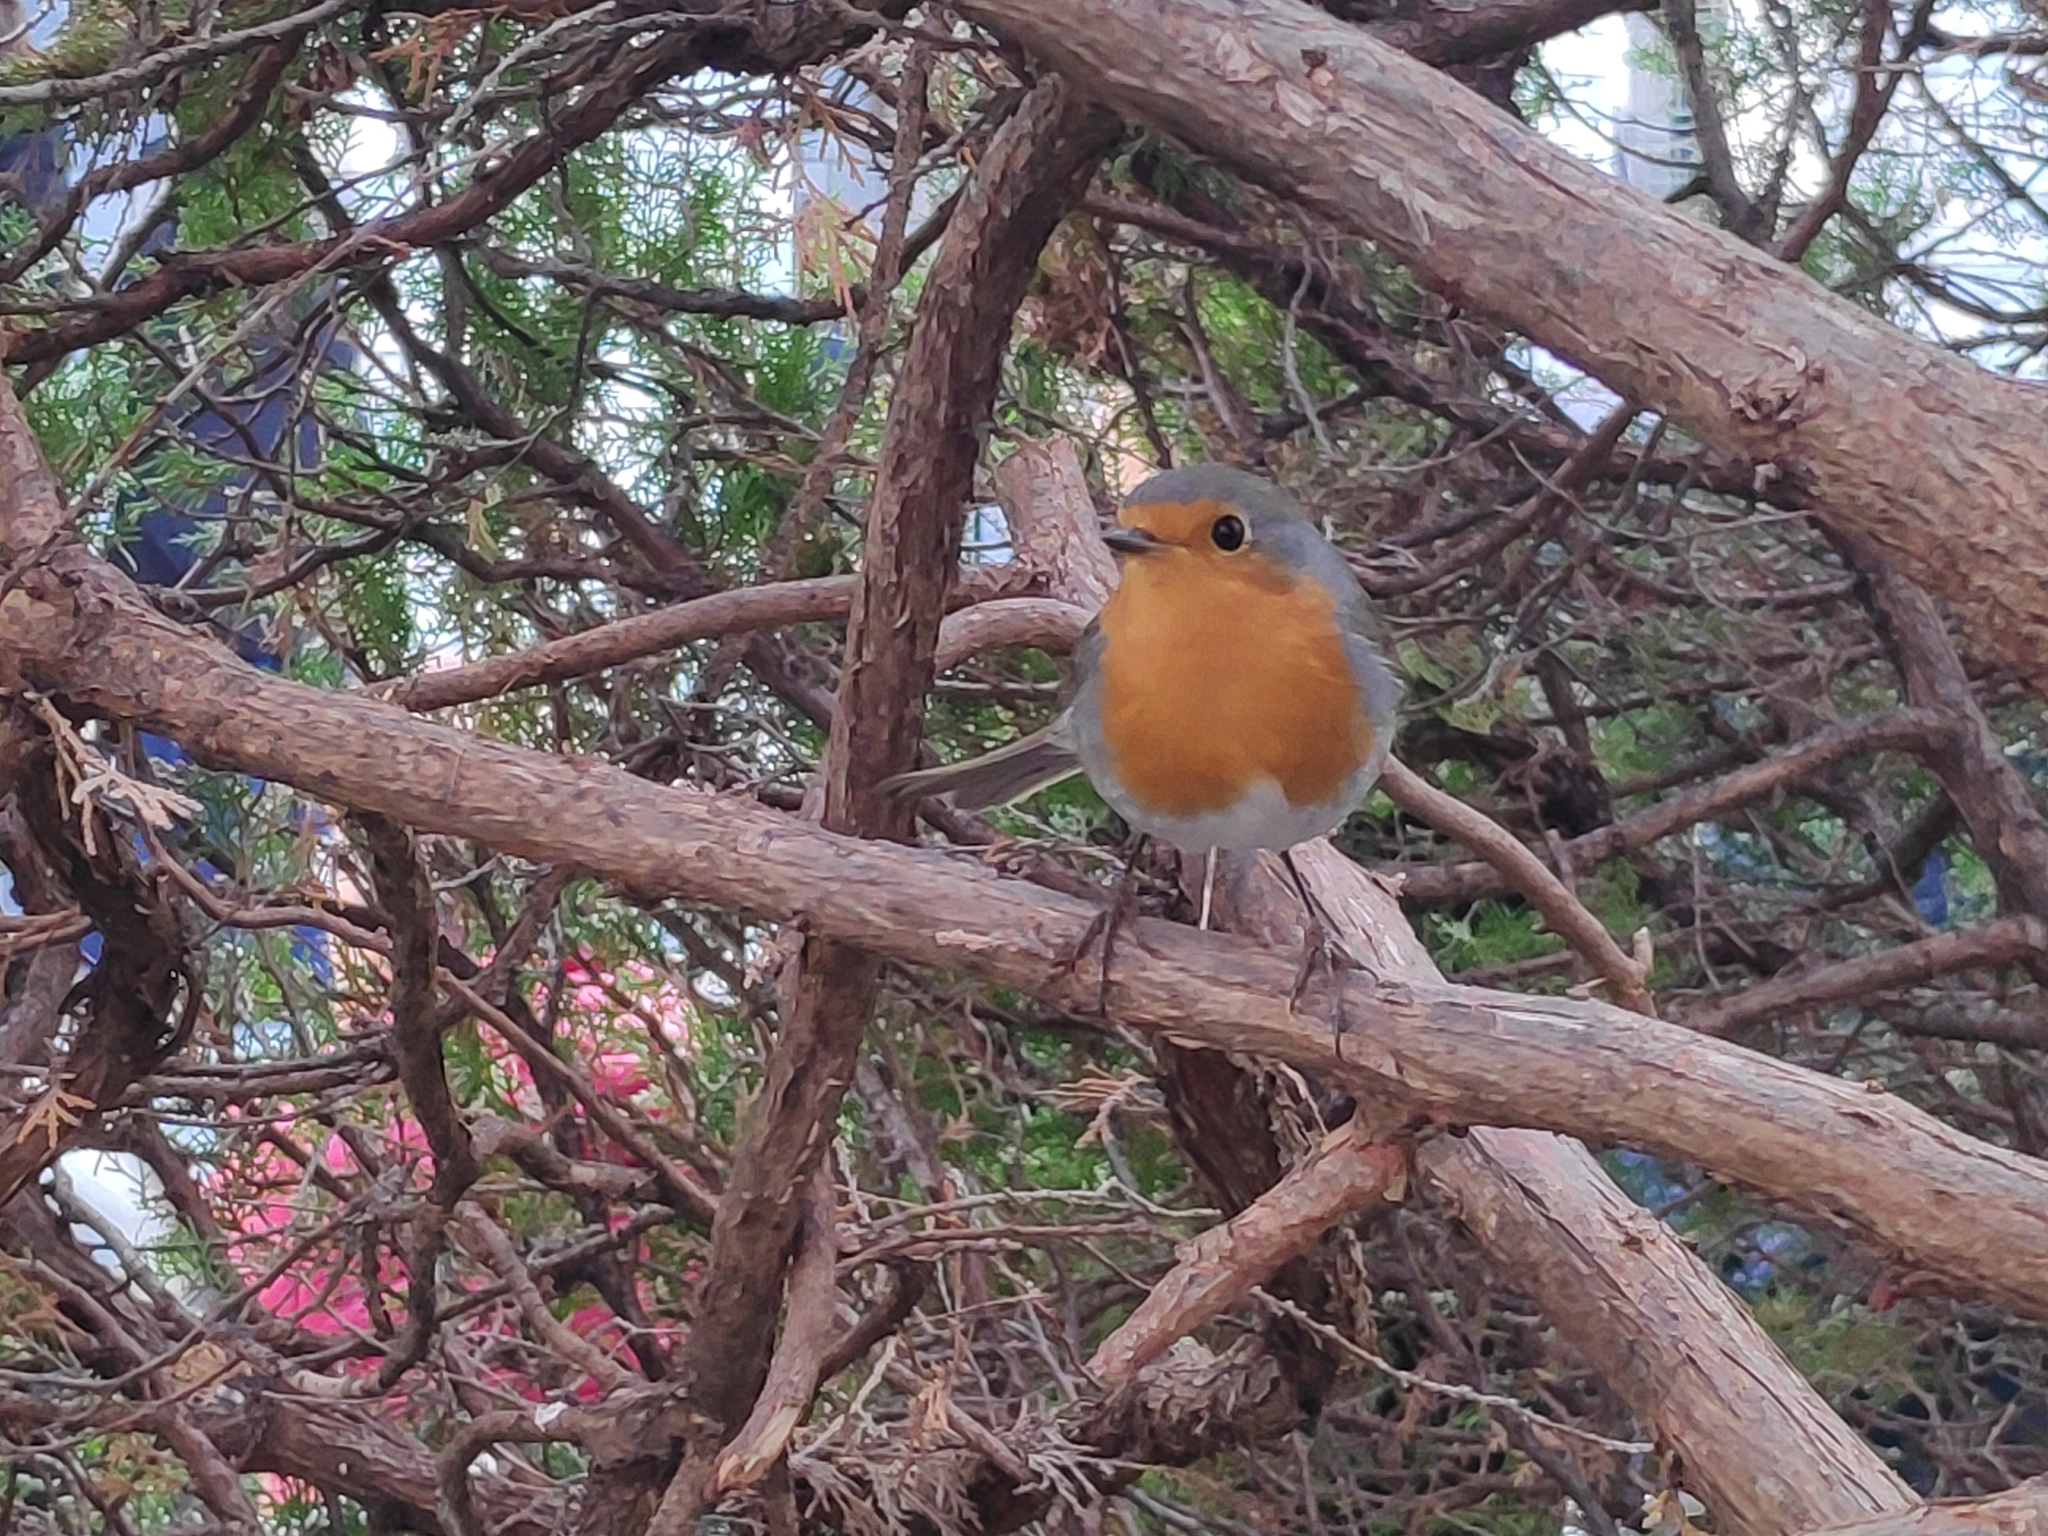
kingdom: Animalia
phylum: Chordata
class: Aves
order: Passeriformes
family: Muscicapidae
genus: Erithacus
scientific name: Erithacus rubecula
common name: European robin
